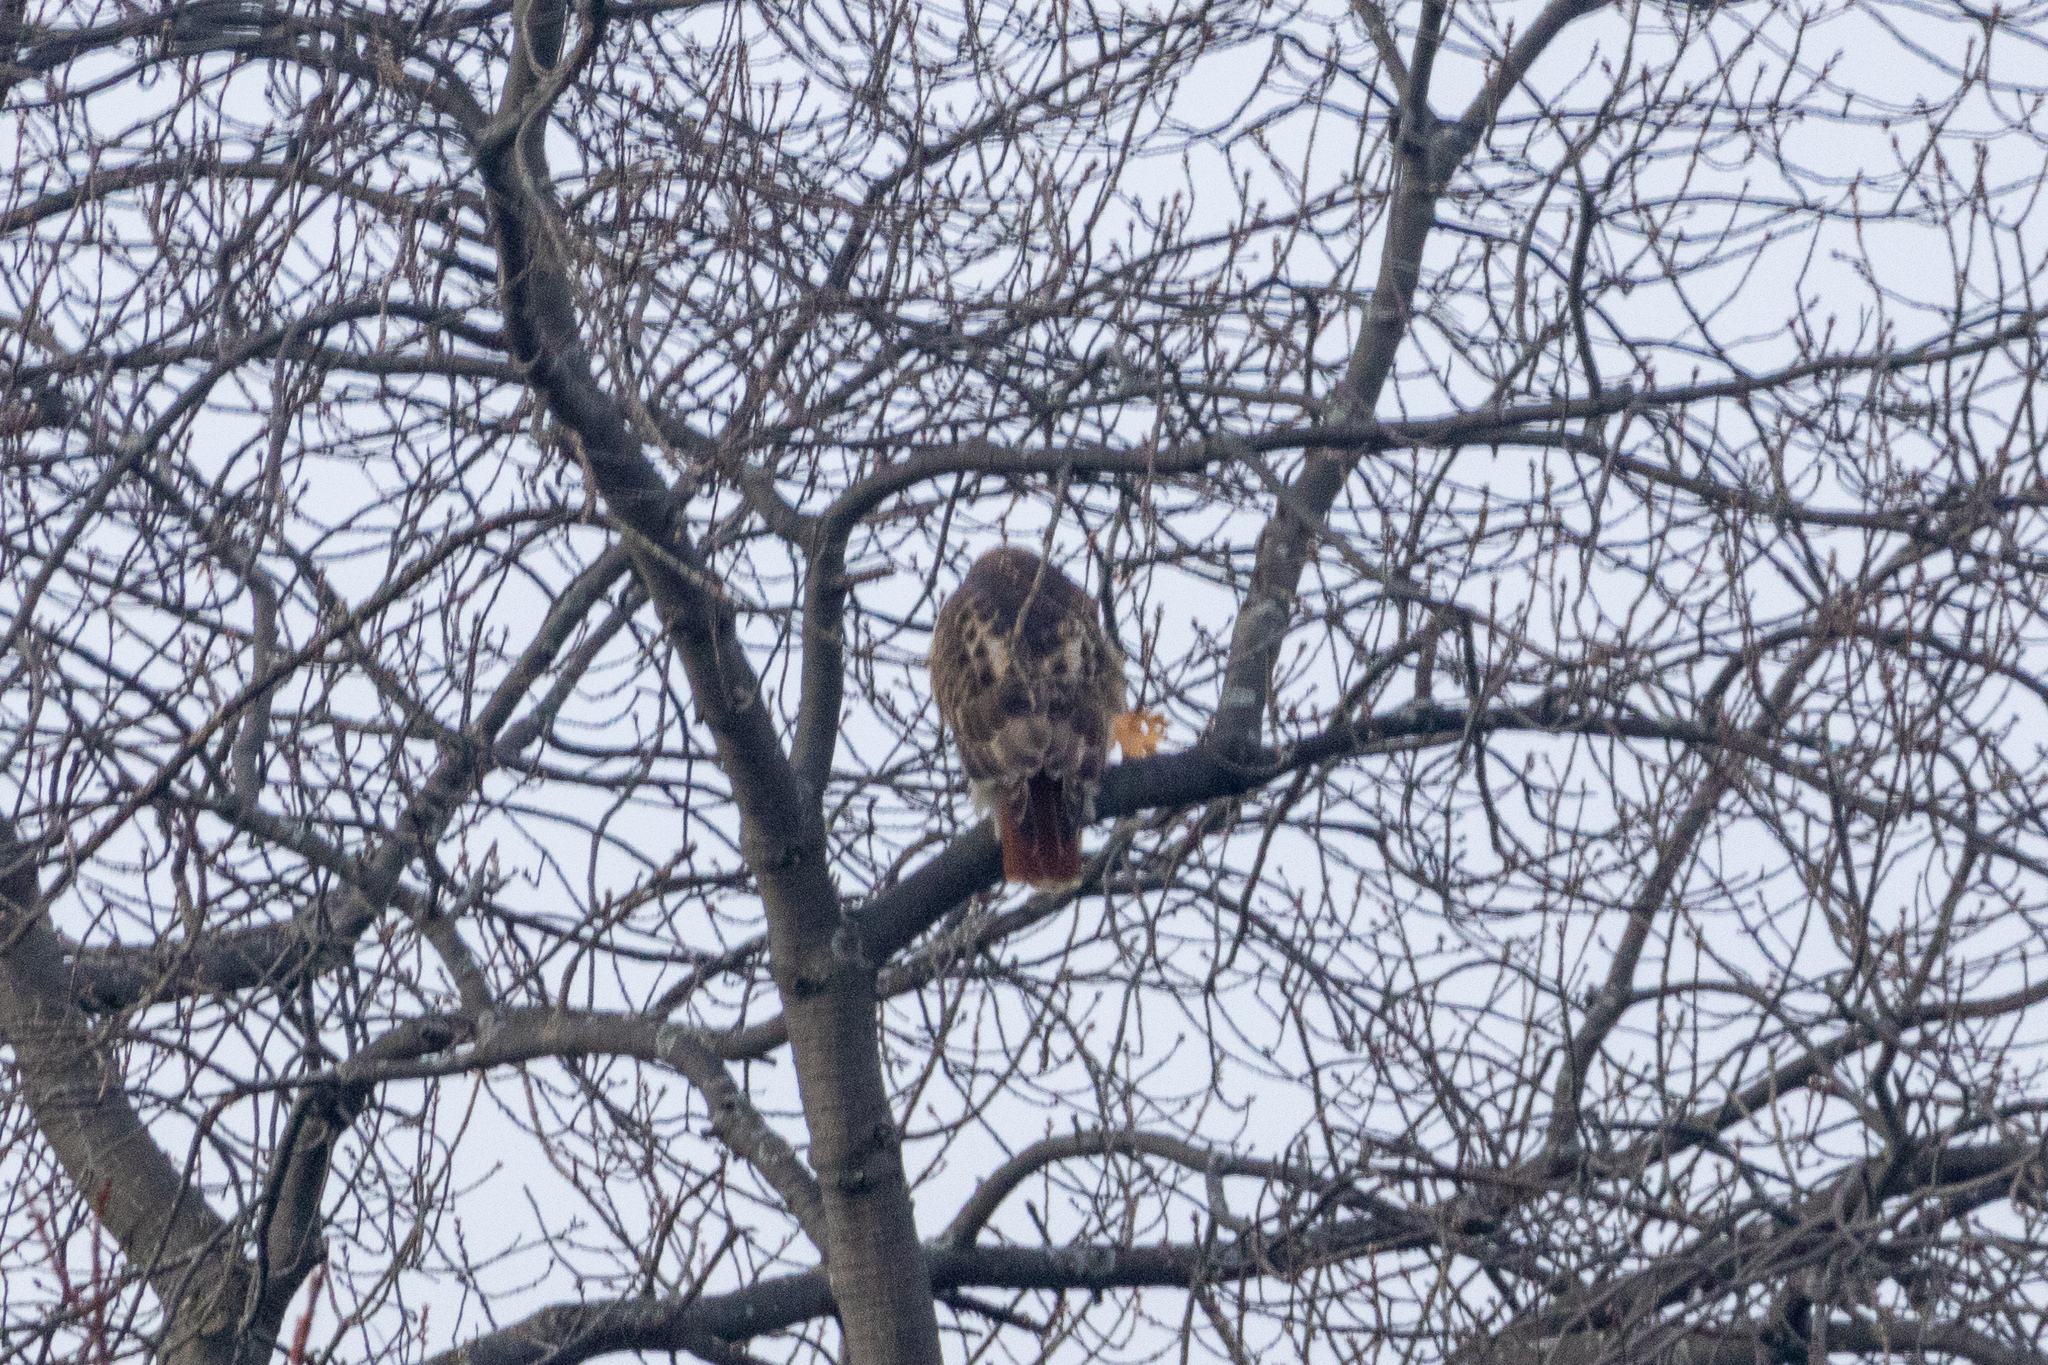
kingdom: Animalia
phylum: Chordata
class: Aves
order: Accipitriformes
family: Accipitridae
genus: Buteo
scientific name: Buteo jamaicensis
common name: Red-tailed hawk
